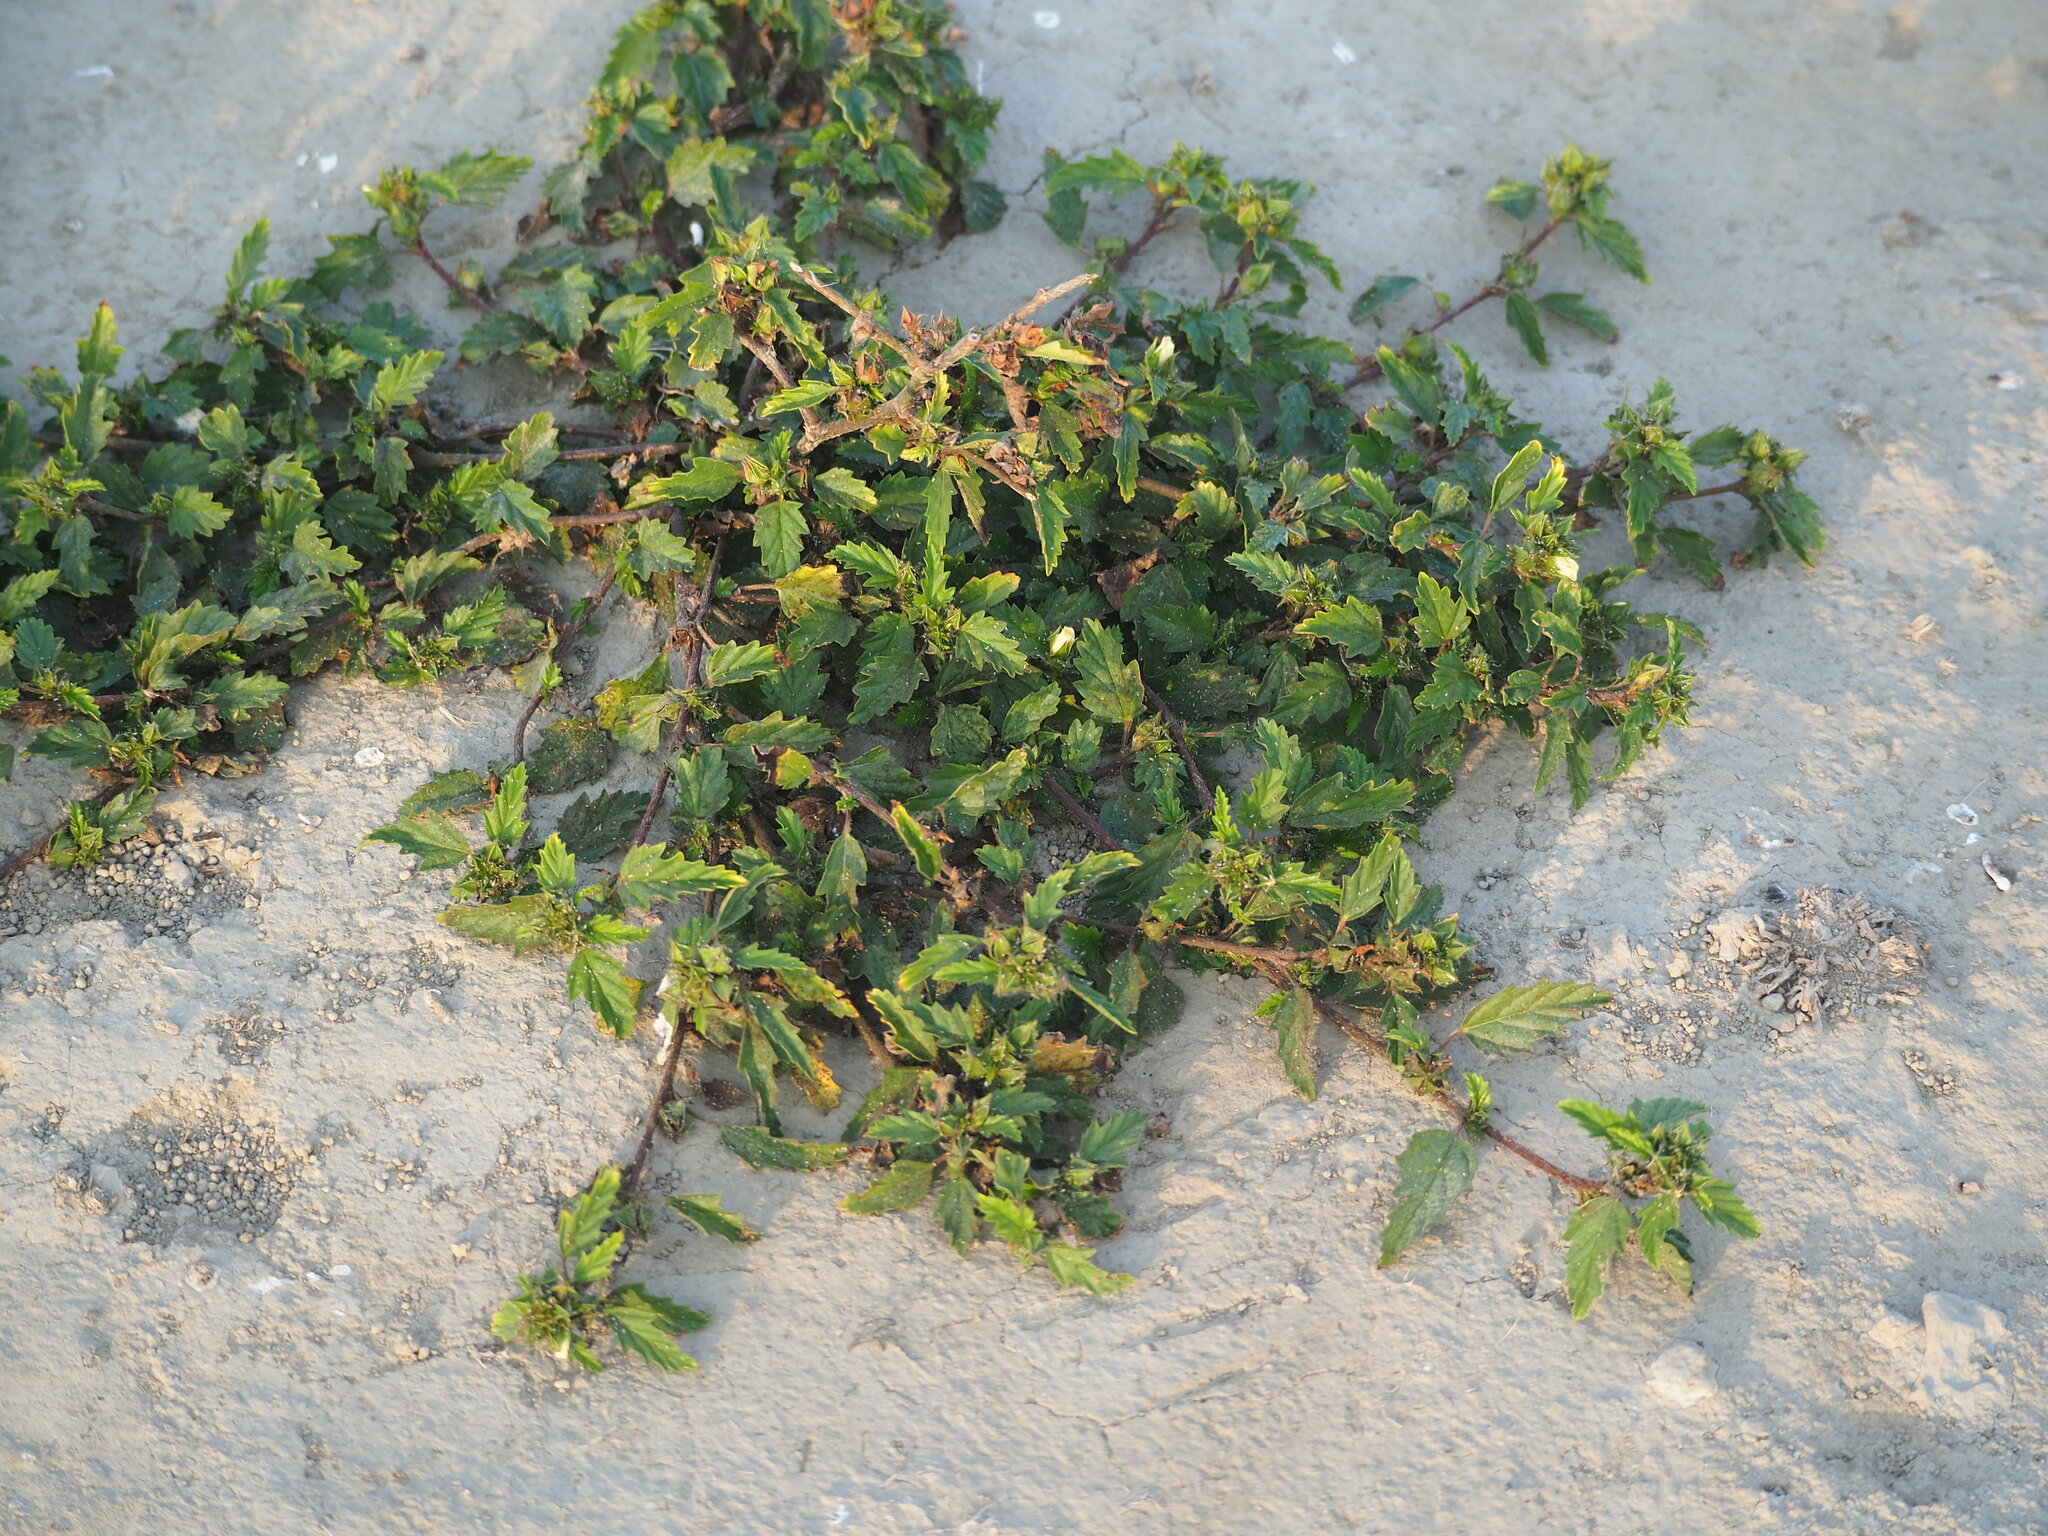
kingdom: Plantae
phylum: Tracheophyta
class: Magnoliopsida
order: Malvales
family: Malvaceae
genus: Malvastrum
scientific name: Malvastrum coromandelianum
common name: Threelobe false mallow
